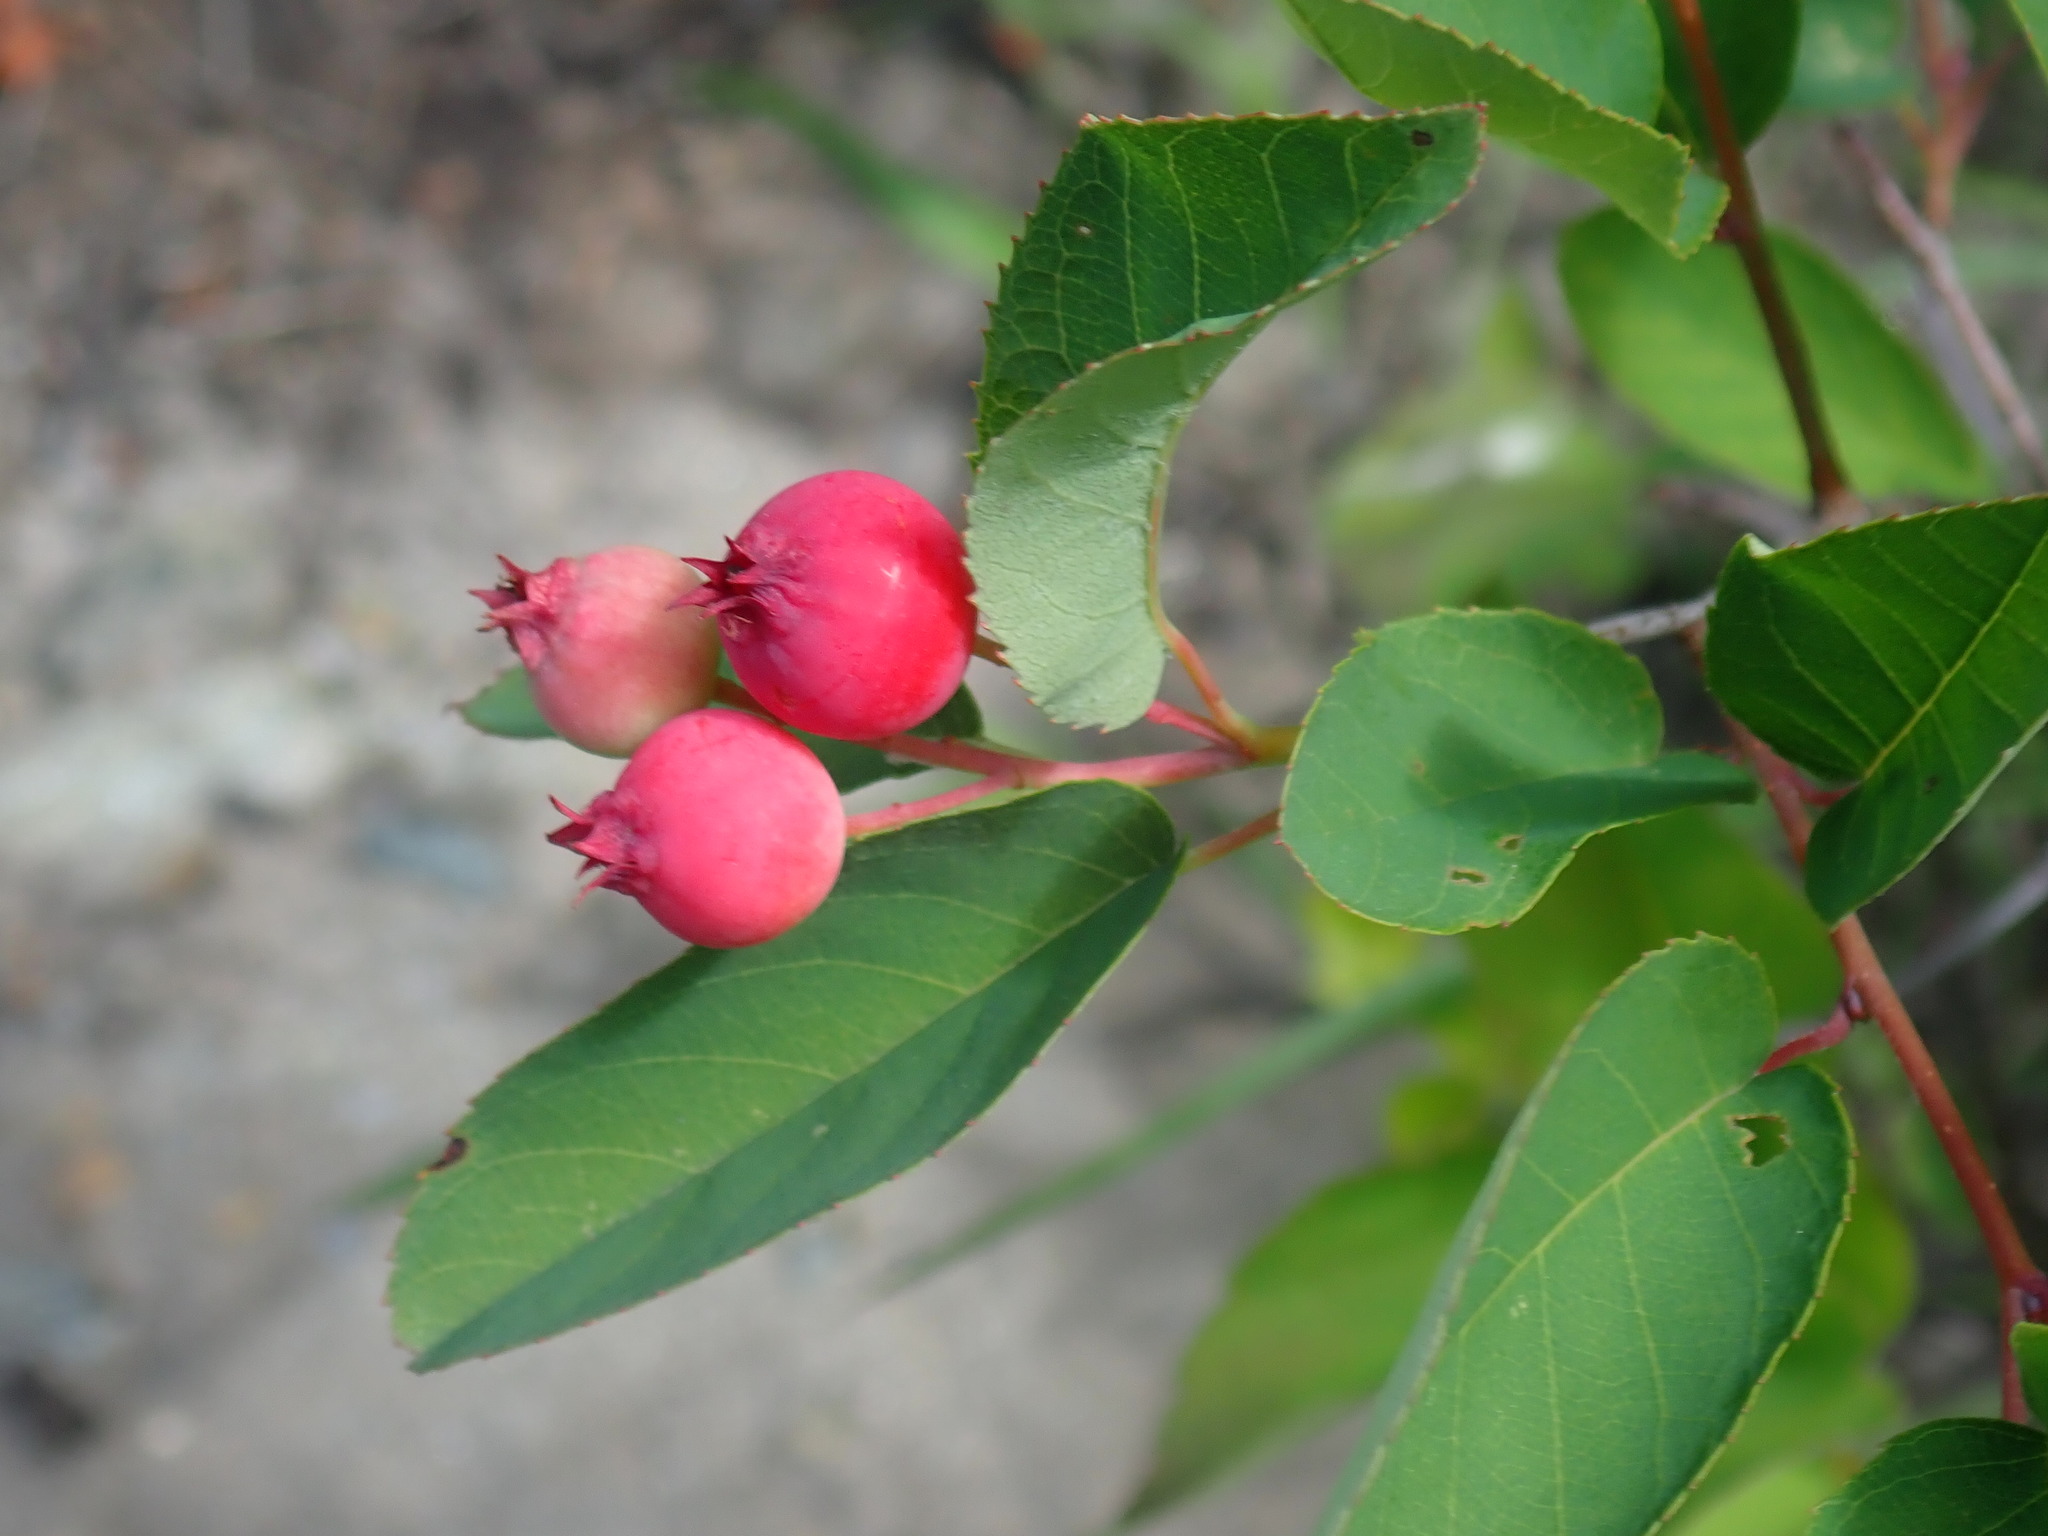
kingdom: Plantae
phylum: Tracheophyta
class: Magnoliopsida
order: Rosales
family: Rosaceae
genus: Amelanchier
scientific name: Amelanchier
